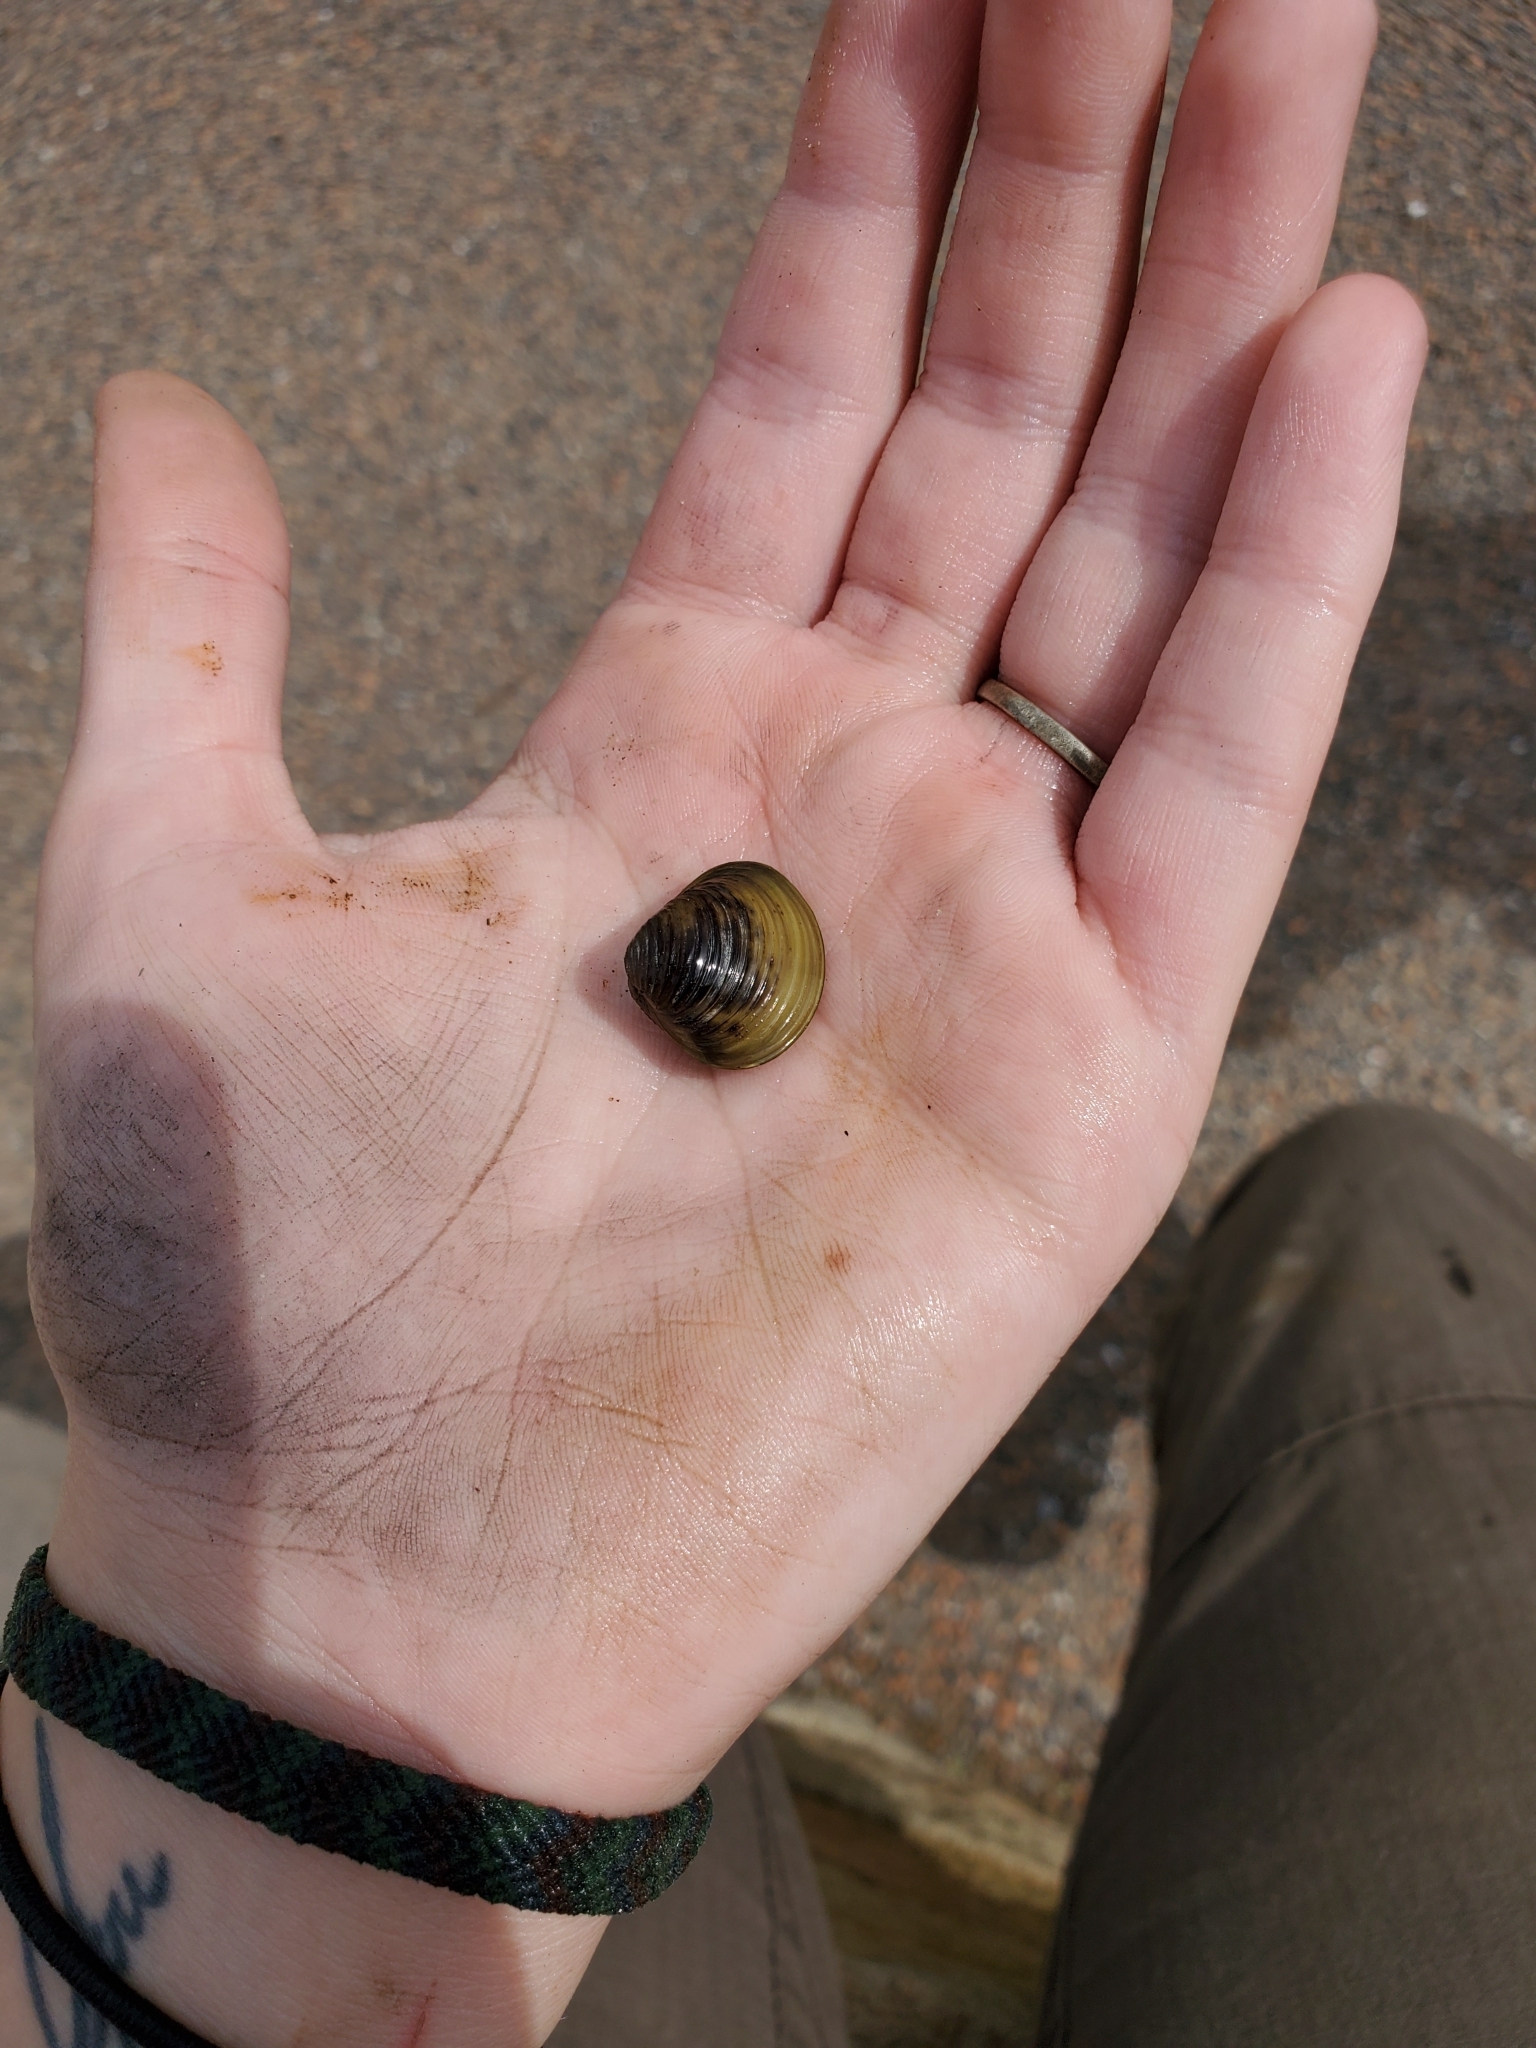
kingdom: Animalia
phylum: Mollusca
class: Bivalvia
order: Venerida
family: Cyrenidae
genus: Corbicula
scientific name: Corbicula fluminea
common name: Asian clam
